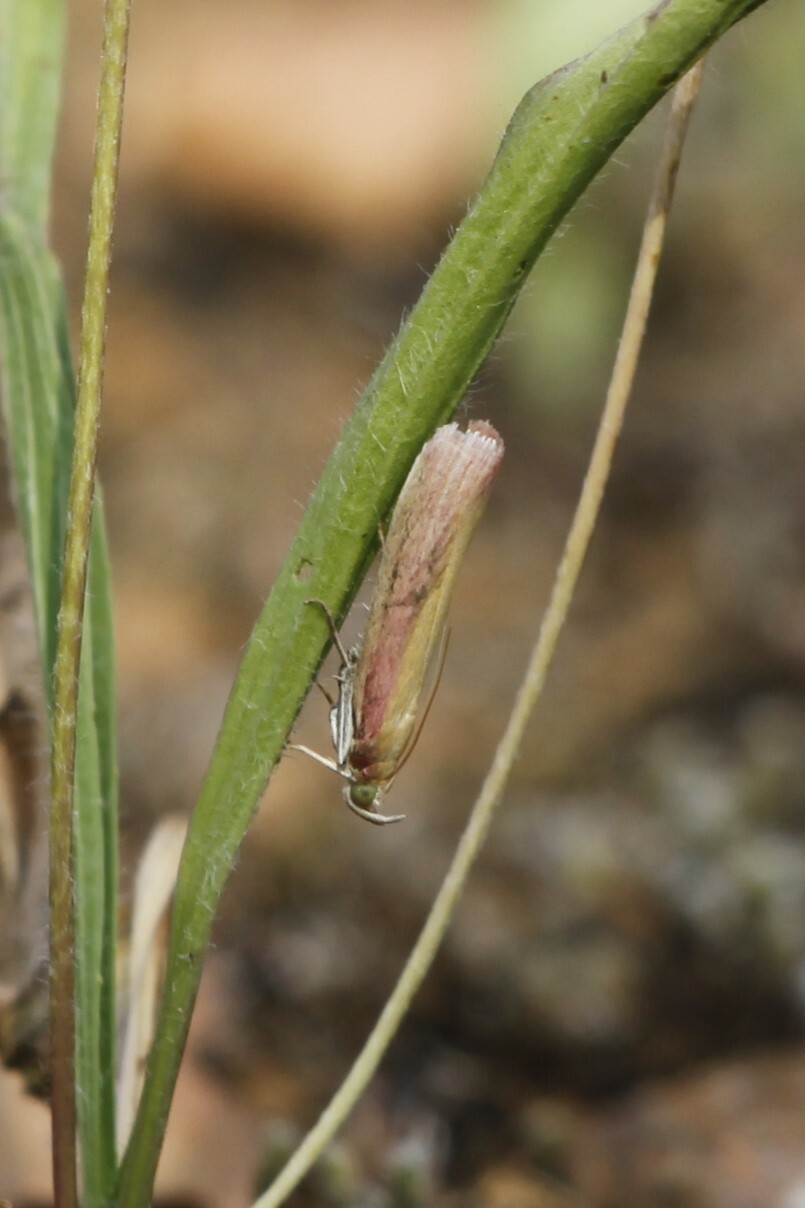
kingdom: Animalia
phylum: Arthropoda
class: Insecta
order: Lepidoptera
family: Pyralidae
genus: Oncocera
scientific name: Oncocera semirubella
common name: Rosy-striped knot-horn
